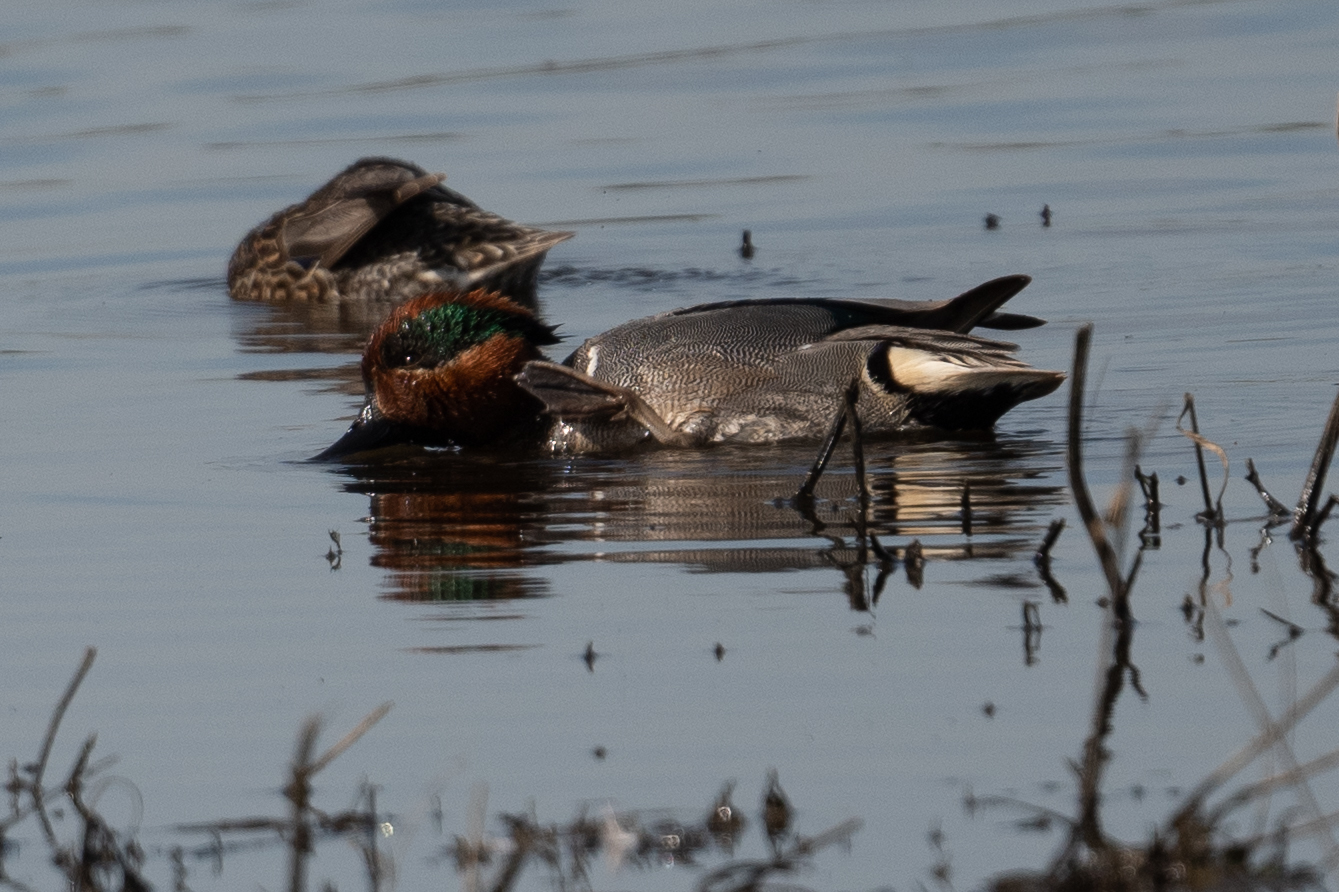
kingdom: Animalia
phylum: Chordata
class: Aves
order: Anseriformes
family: Anatidae
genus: Anas
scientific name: Anas crecca
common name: Eurasian teal
